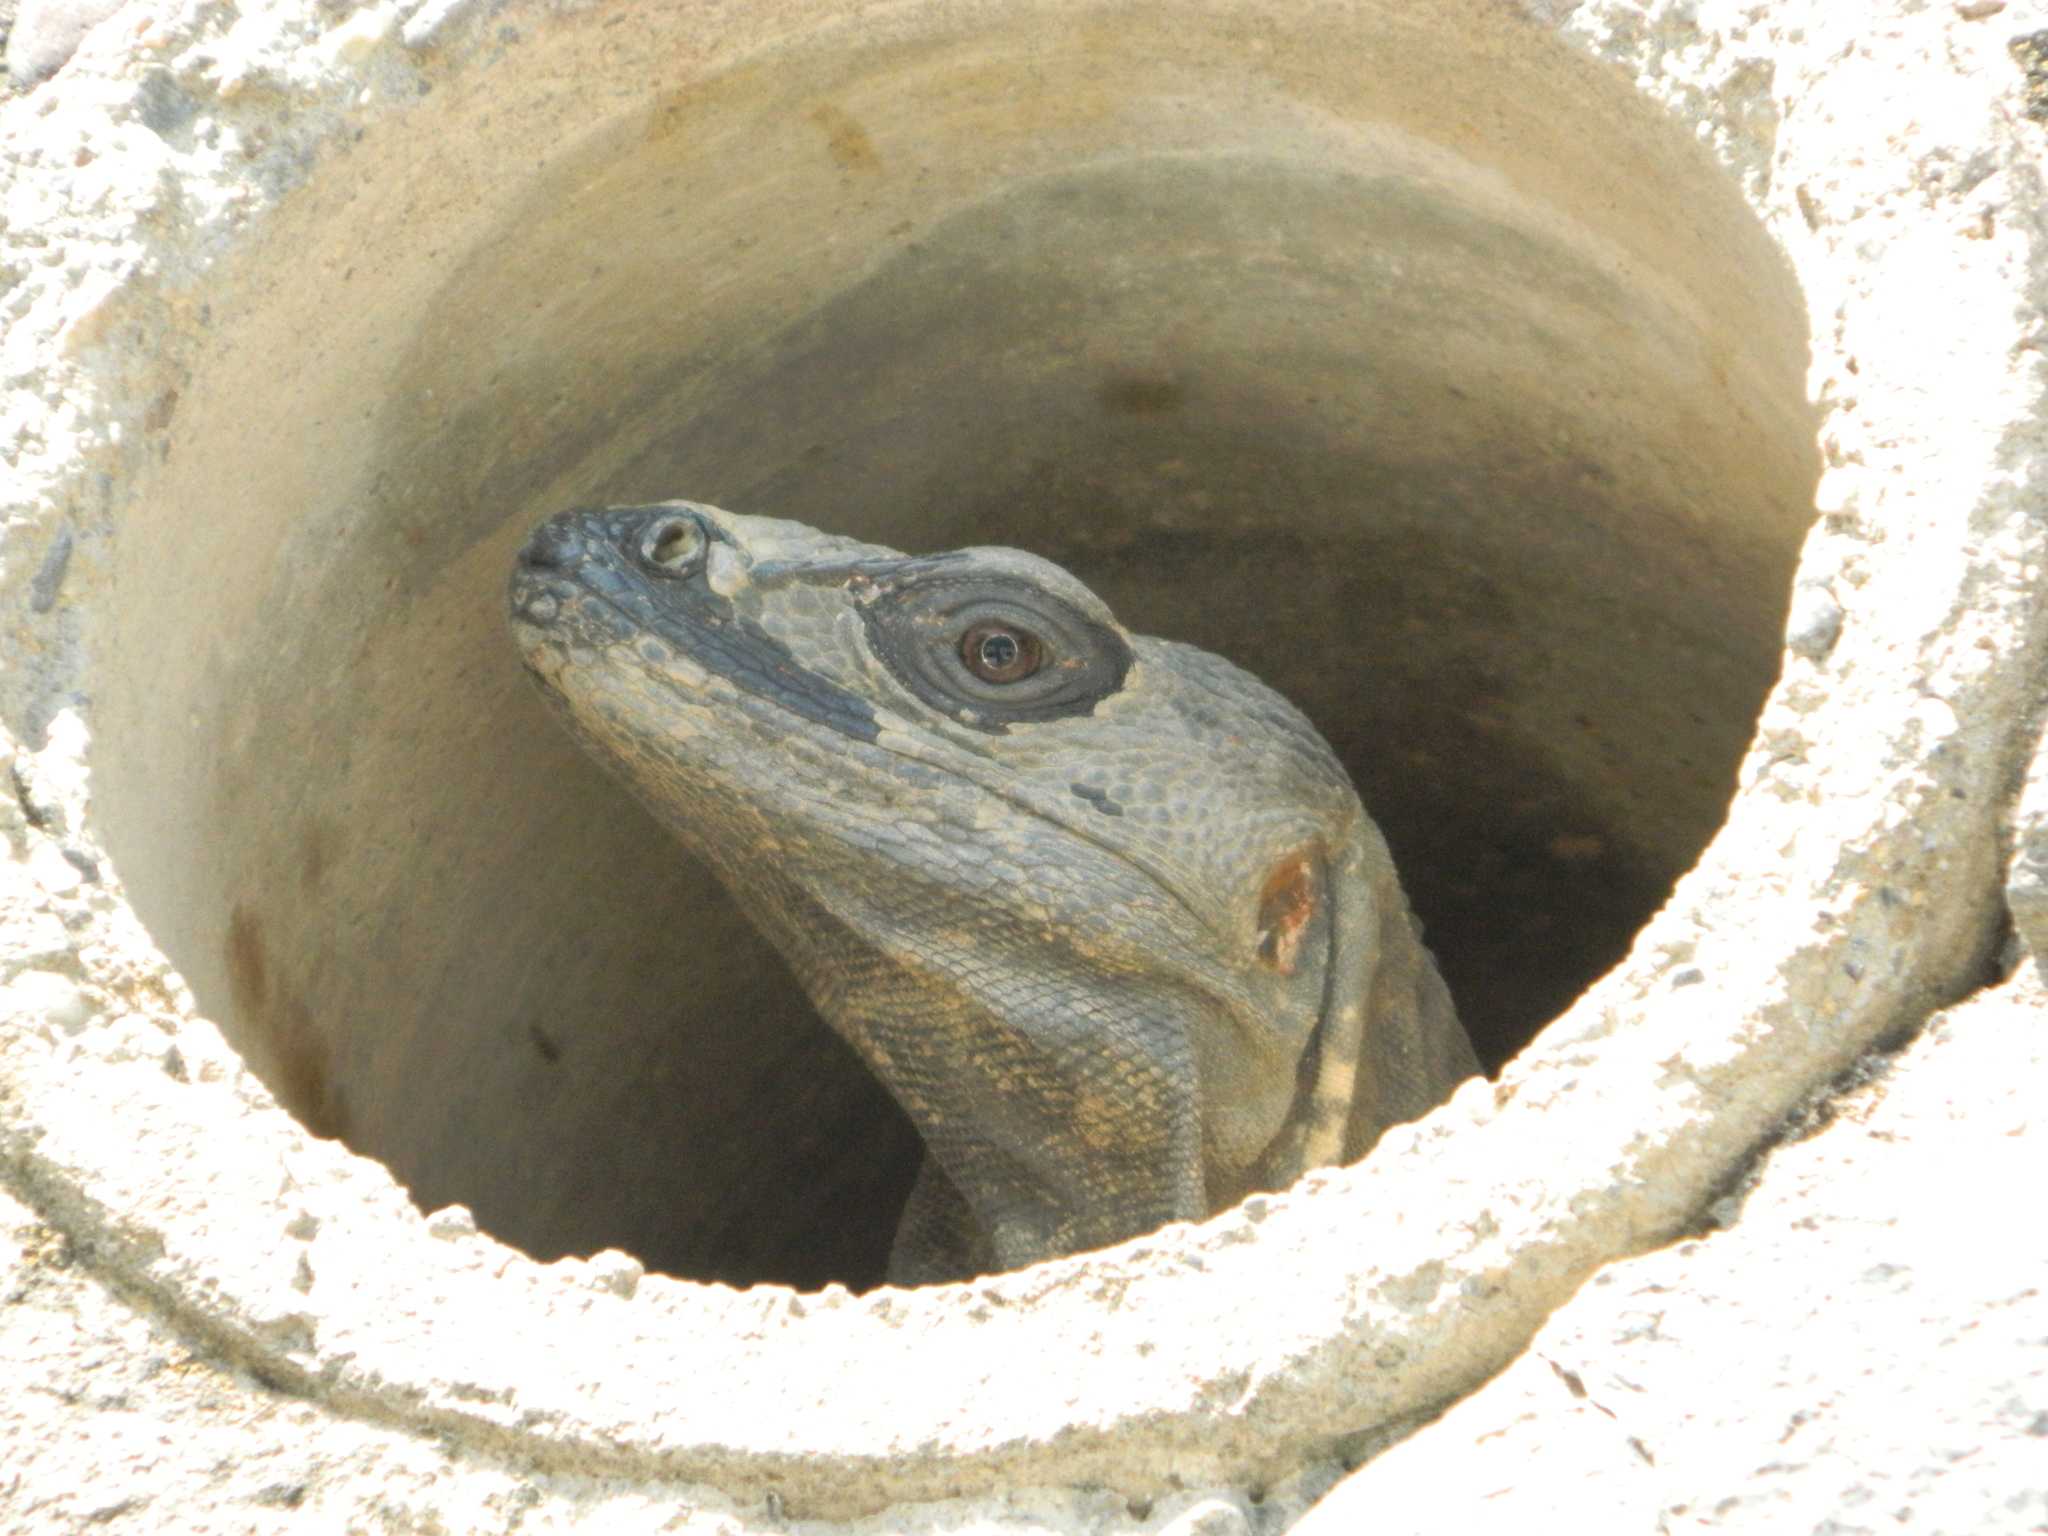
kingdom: Animalia
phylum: Chordata
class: Squamata
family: Iguanidae
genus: Ctenosaura
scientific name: Ctenosaura pectinata
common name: Guerreran spiny-tailed iguana
